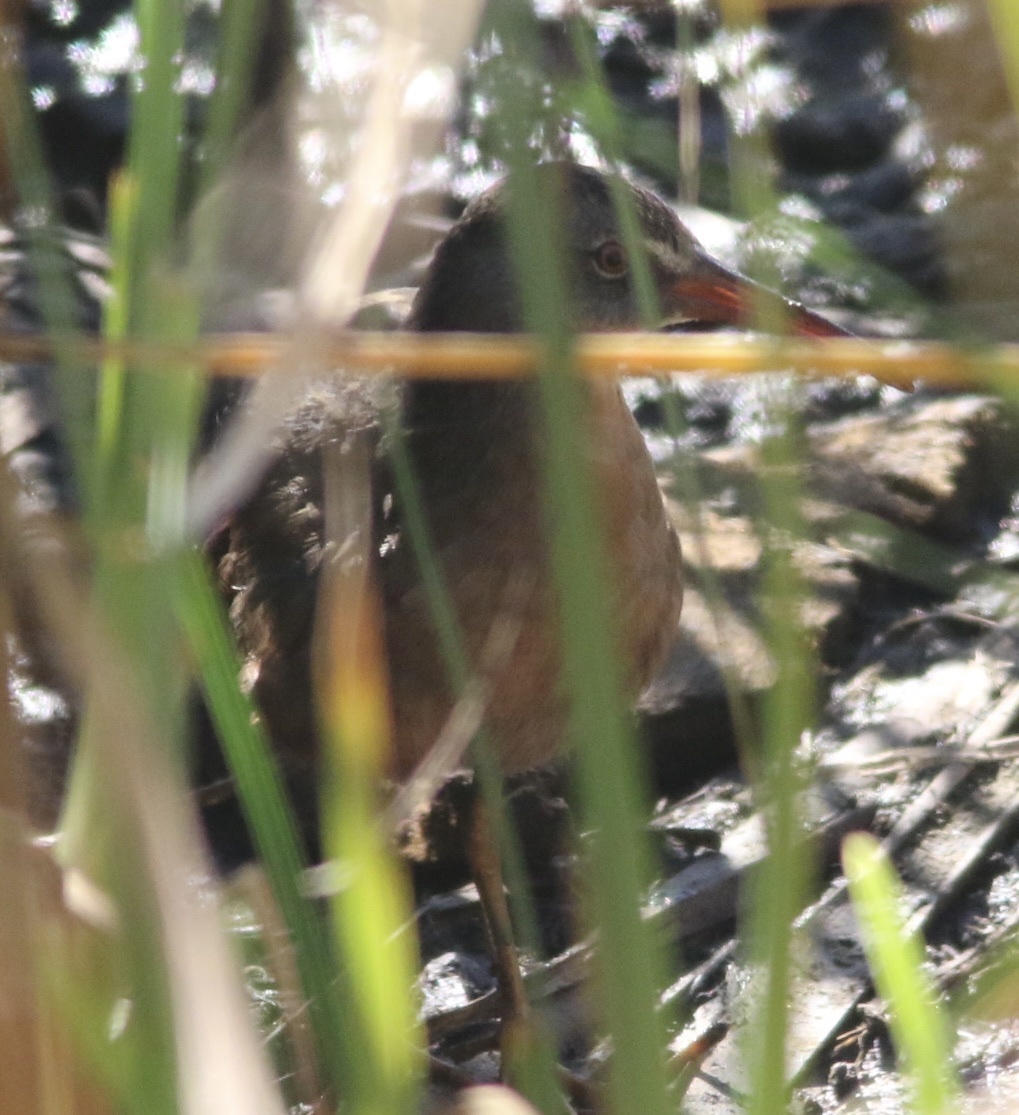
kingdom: Animalia
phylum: Chordata
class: Aves
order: Gruiformes
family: Rallidae
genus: Rallus
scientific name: Rallus limicola
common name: Virginia rail
